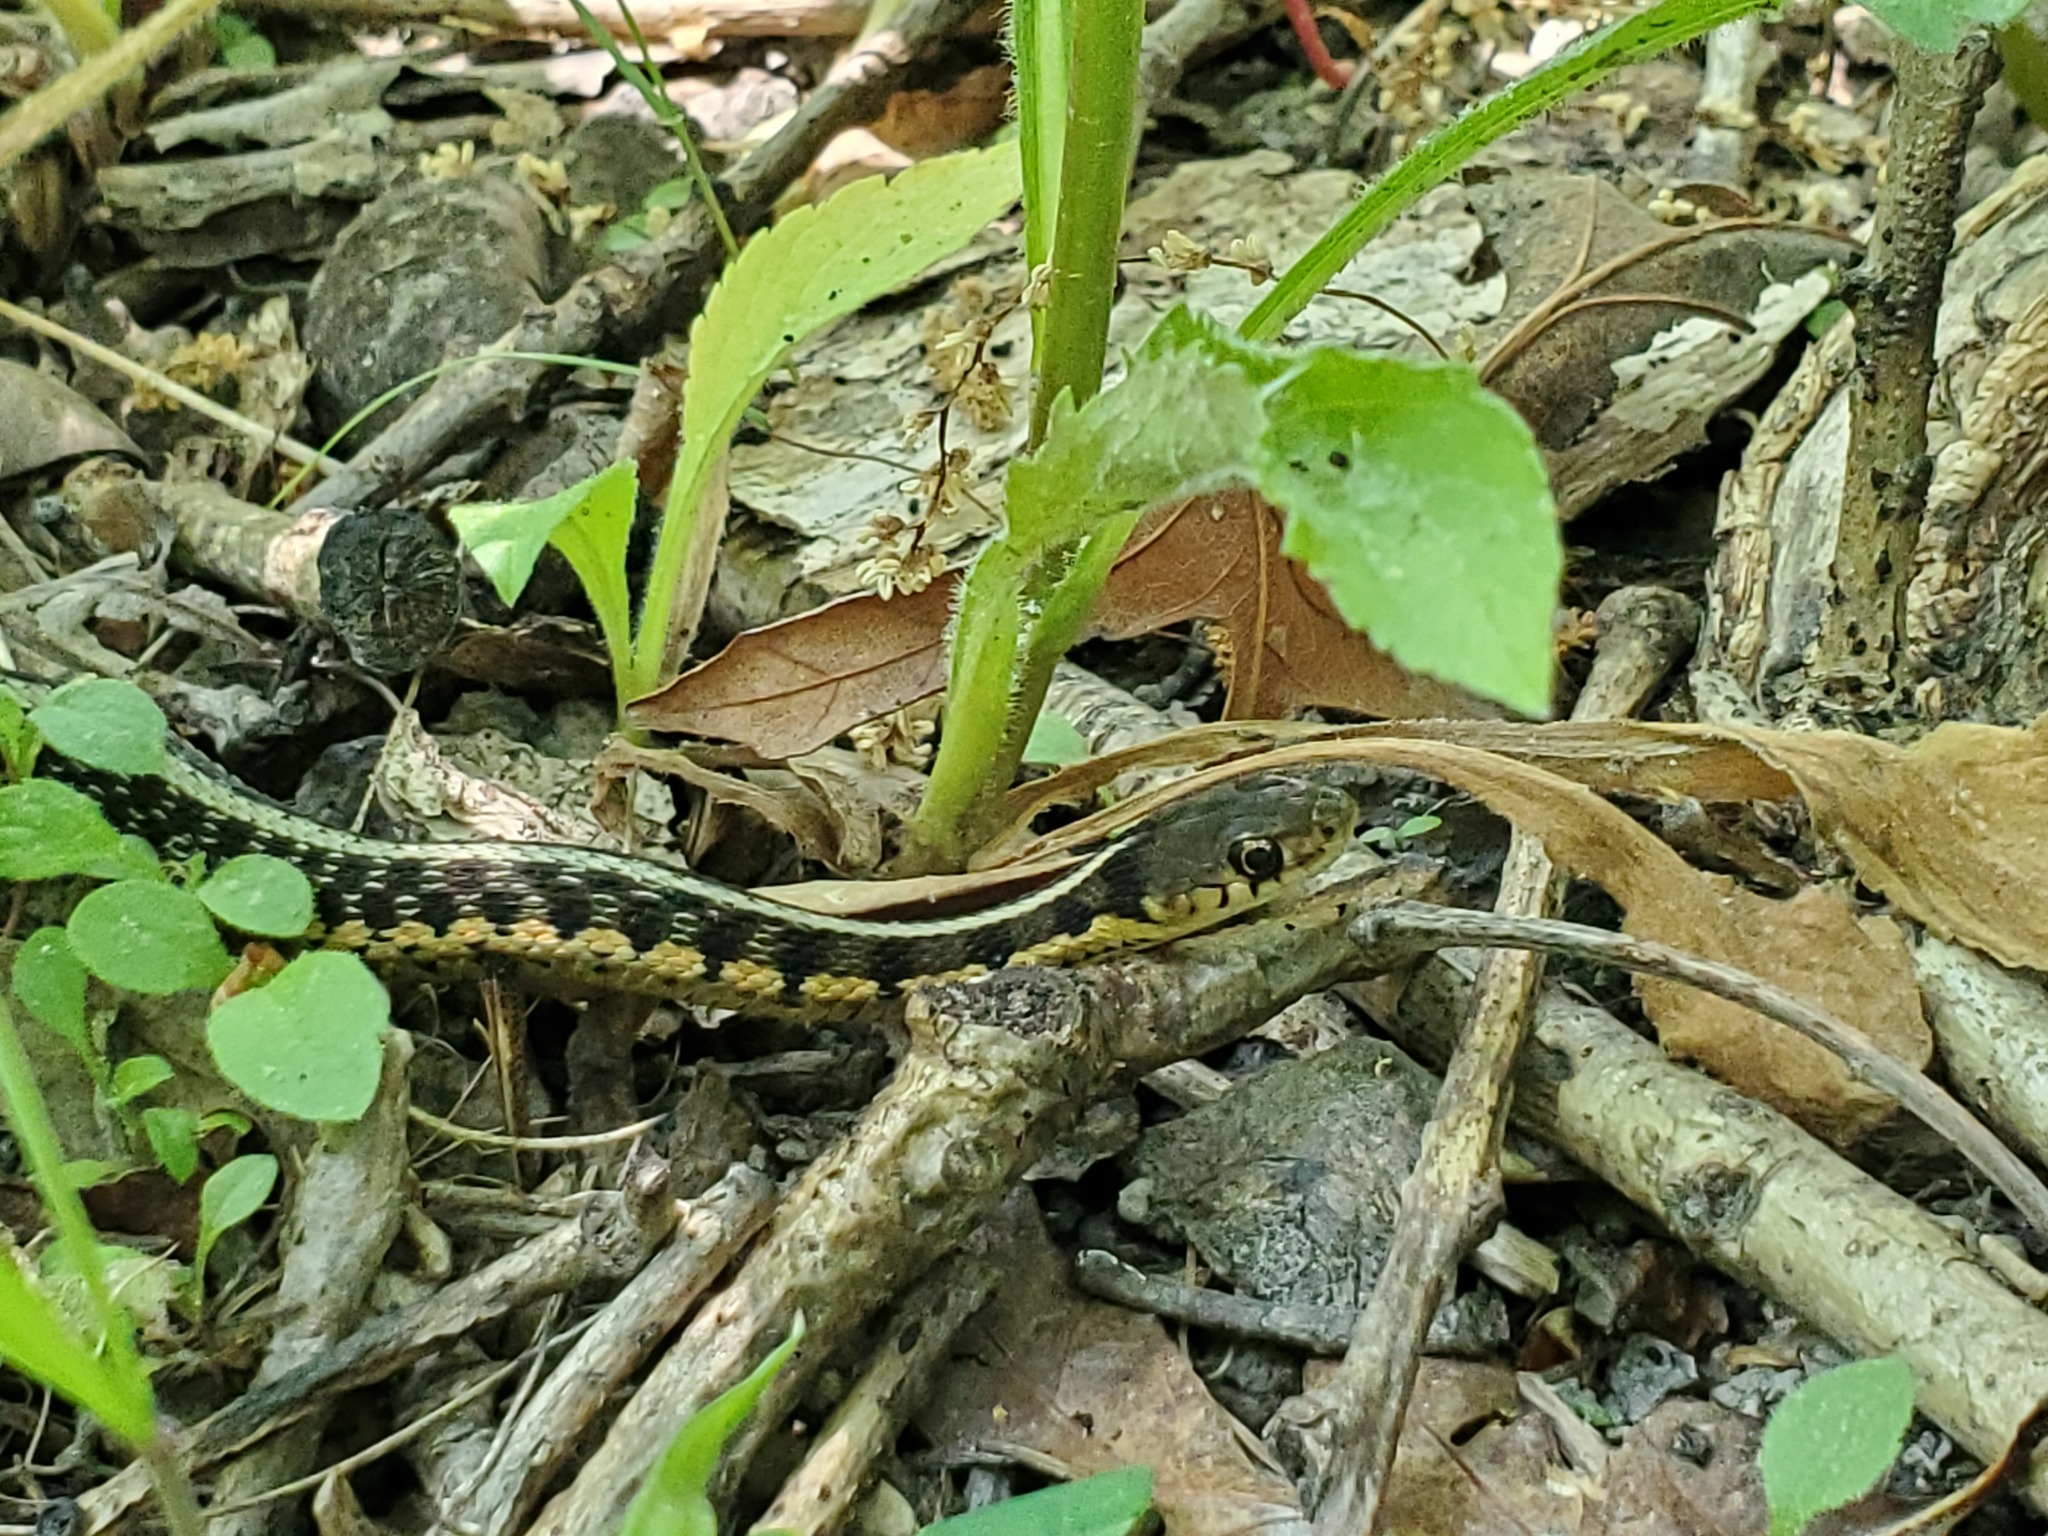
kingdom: Animalia
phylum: Chordata
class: Squamata
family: Colubridae
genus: Thamnophis
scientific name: Thamnophis sirtalis
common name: Common garter snake
